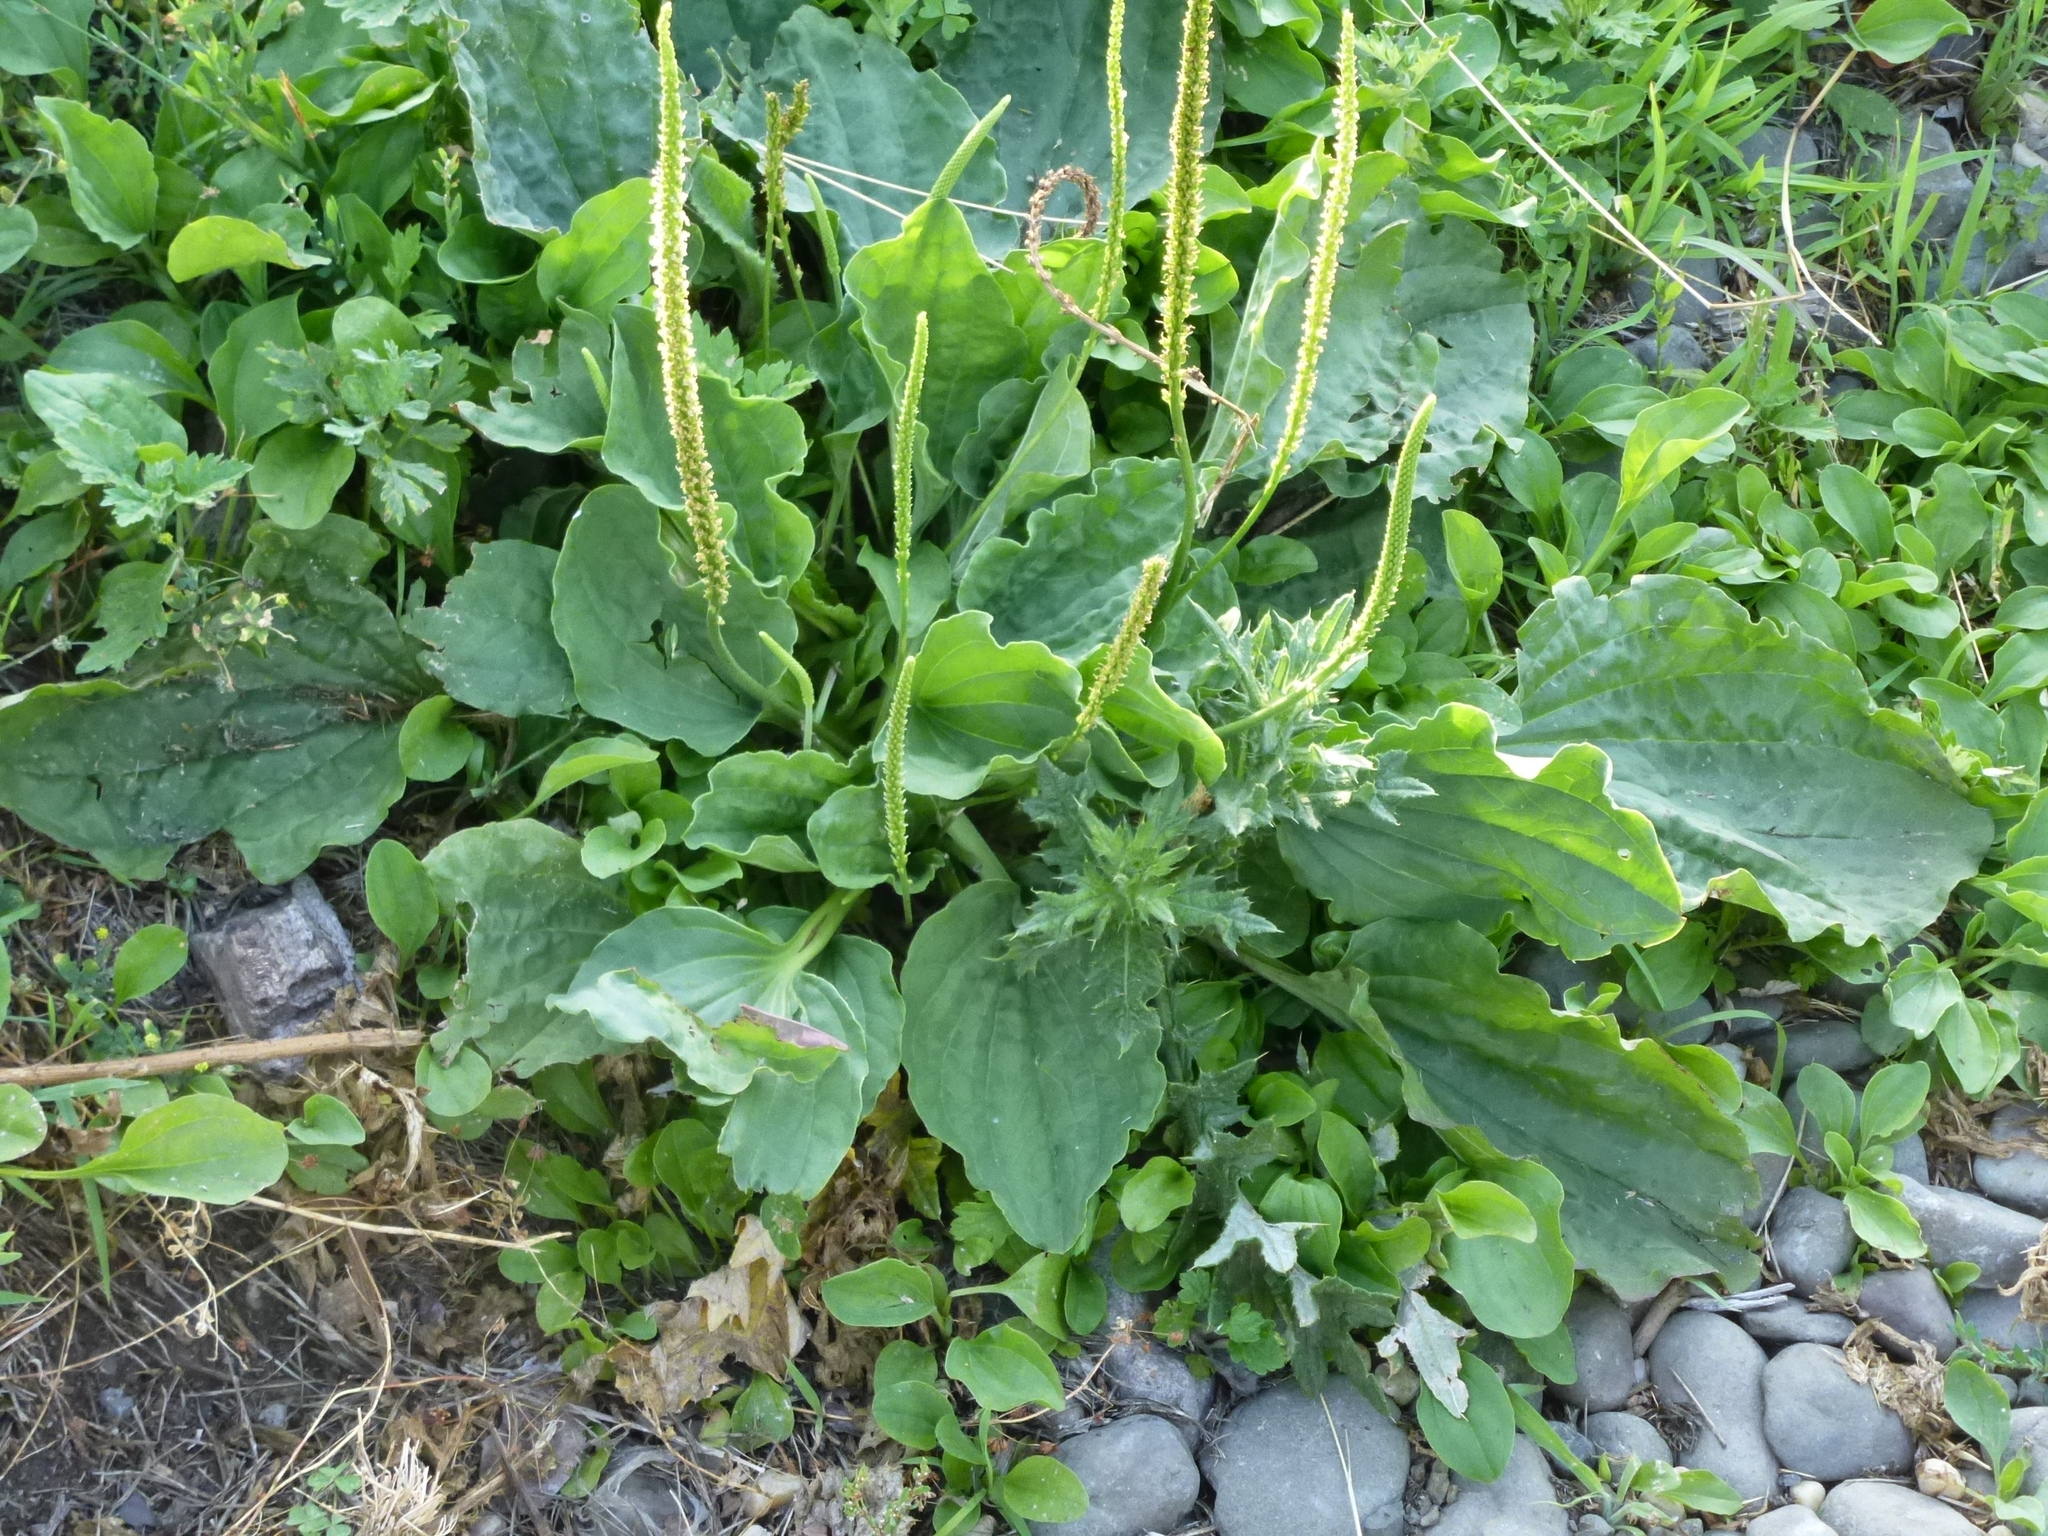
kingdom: Plantae
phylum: Tracheophyta
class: Magnoliopsida
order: Lamiales
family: Plantaginaceae
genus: Plantago
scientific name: Plantago major
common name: Common plantain
